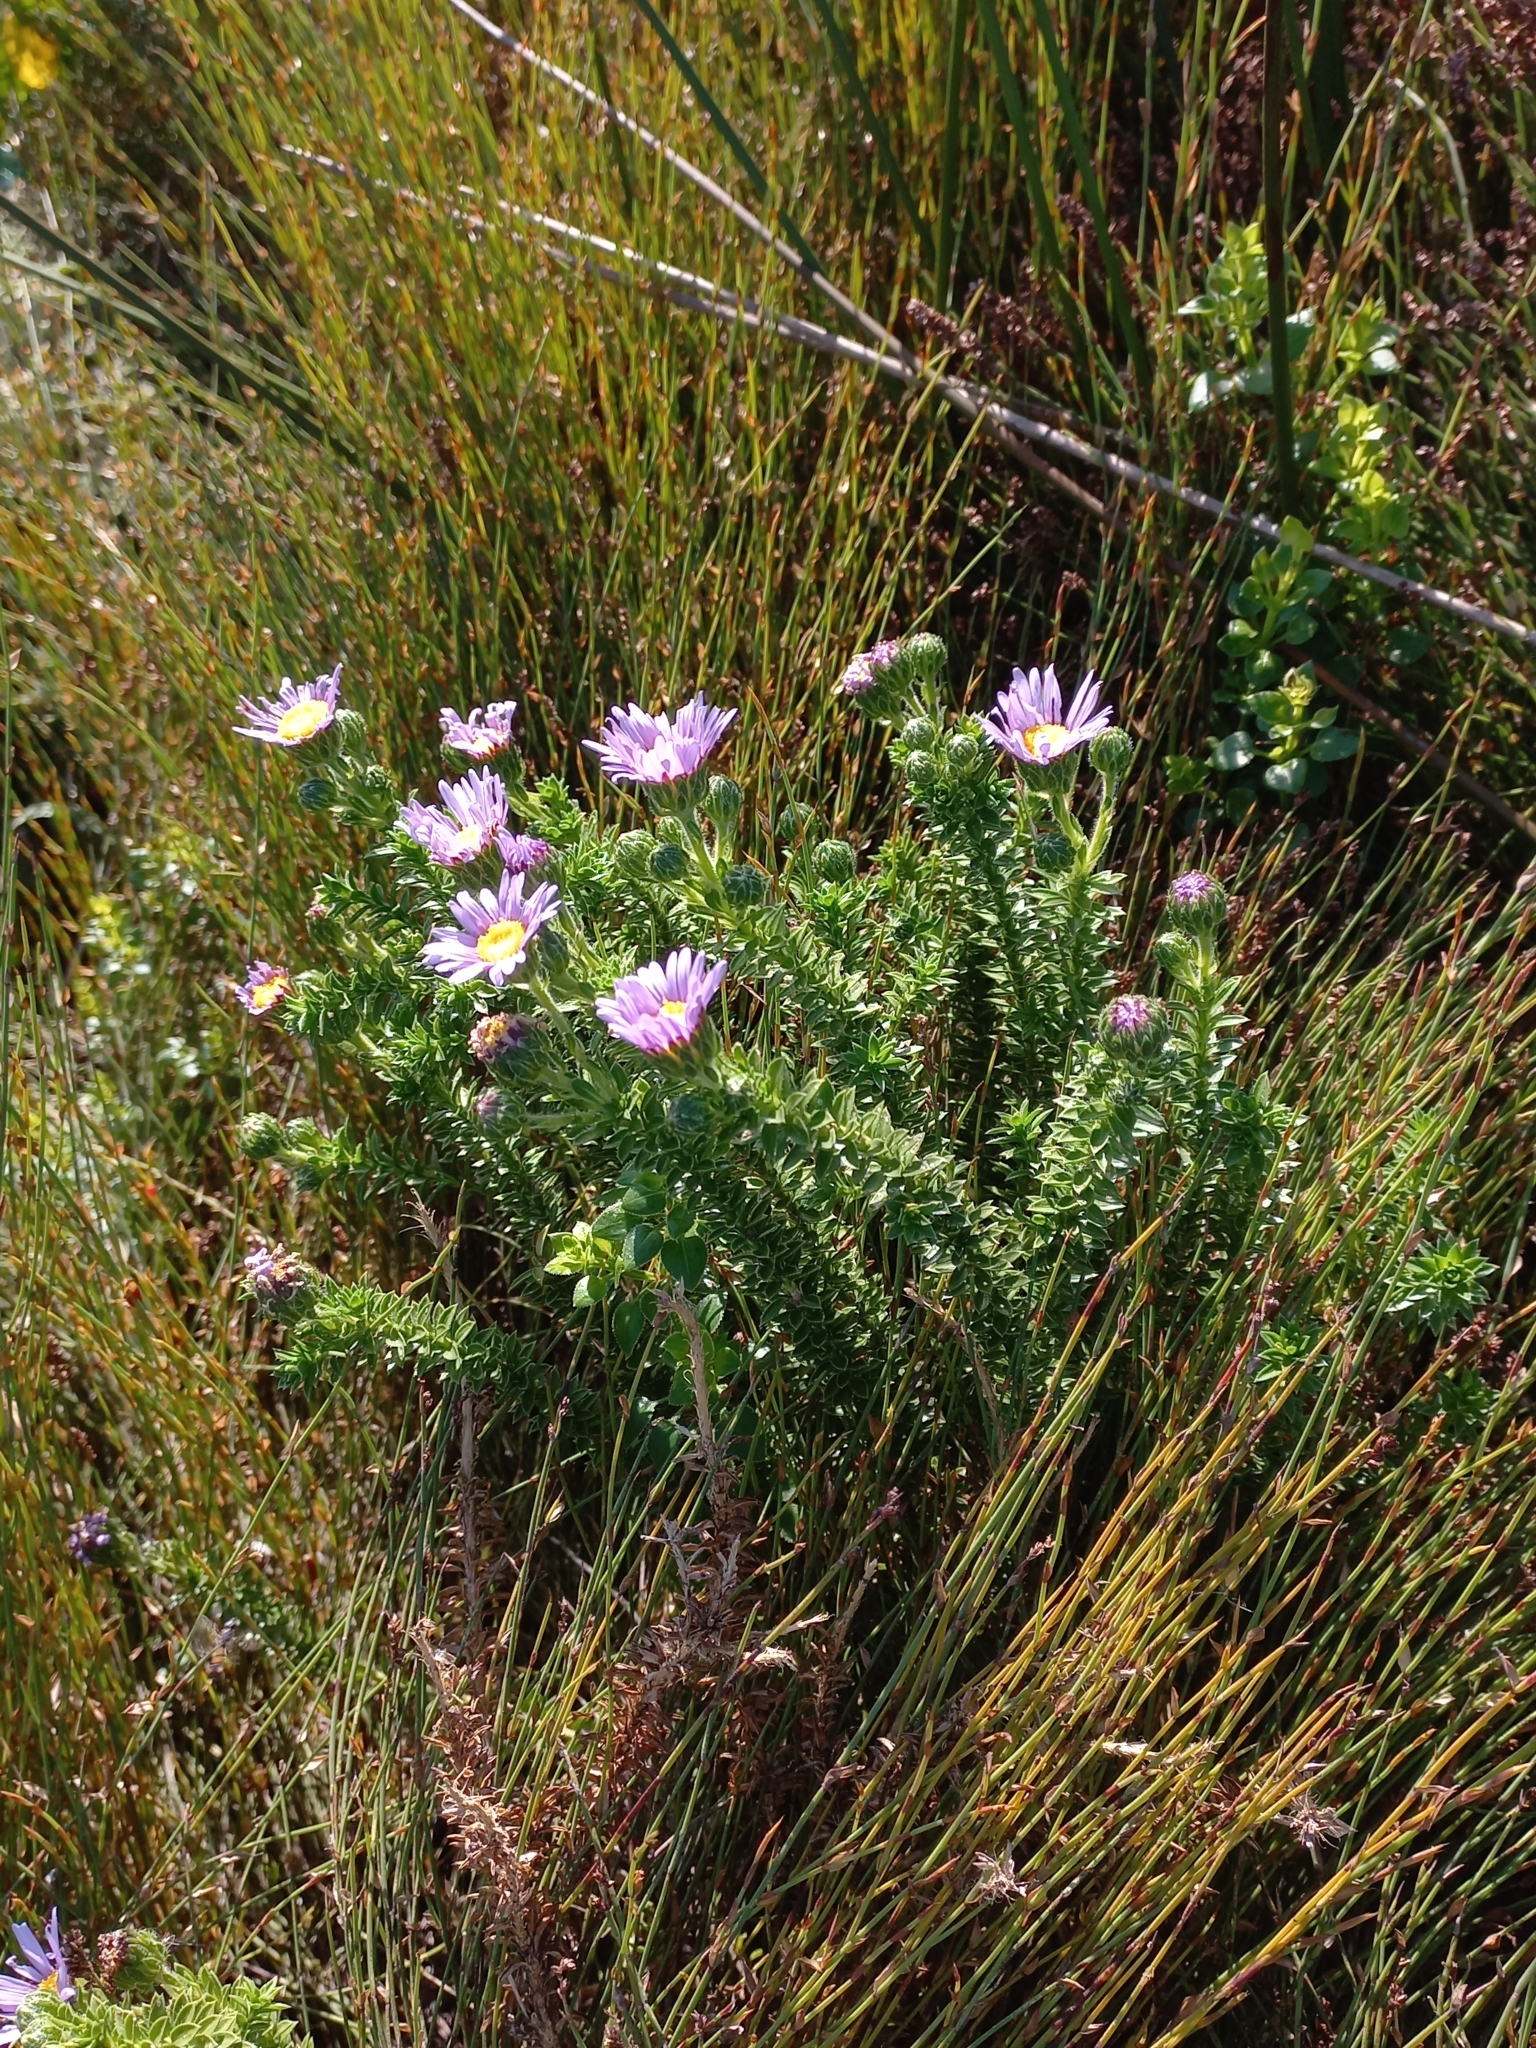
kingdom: Plantae
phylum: Tracheophyta
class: Magnoliopsida
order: Asterales
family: Asteraceae
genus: Felicia
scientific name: Felicia echinata
